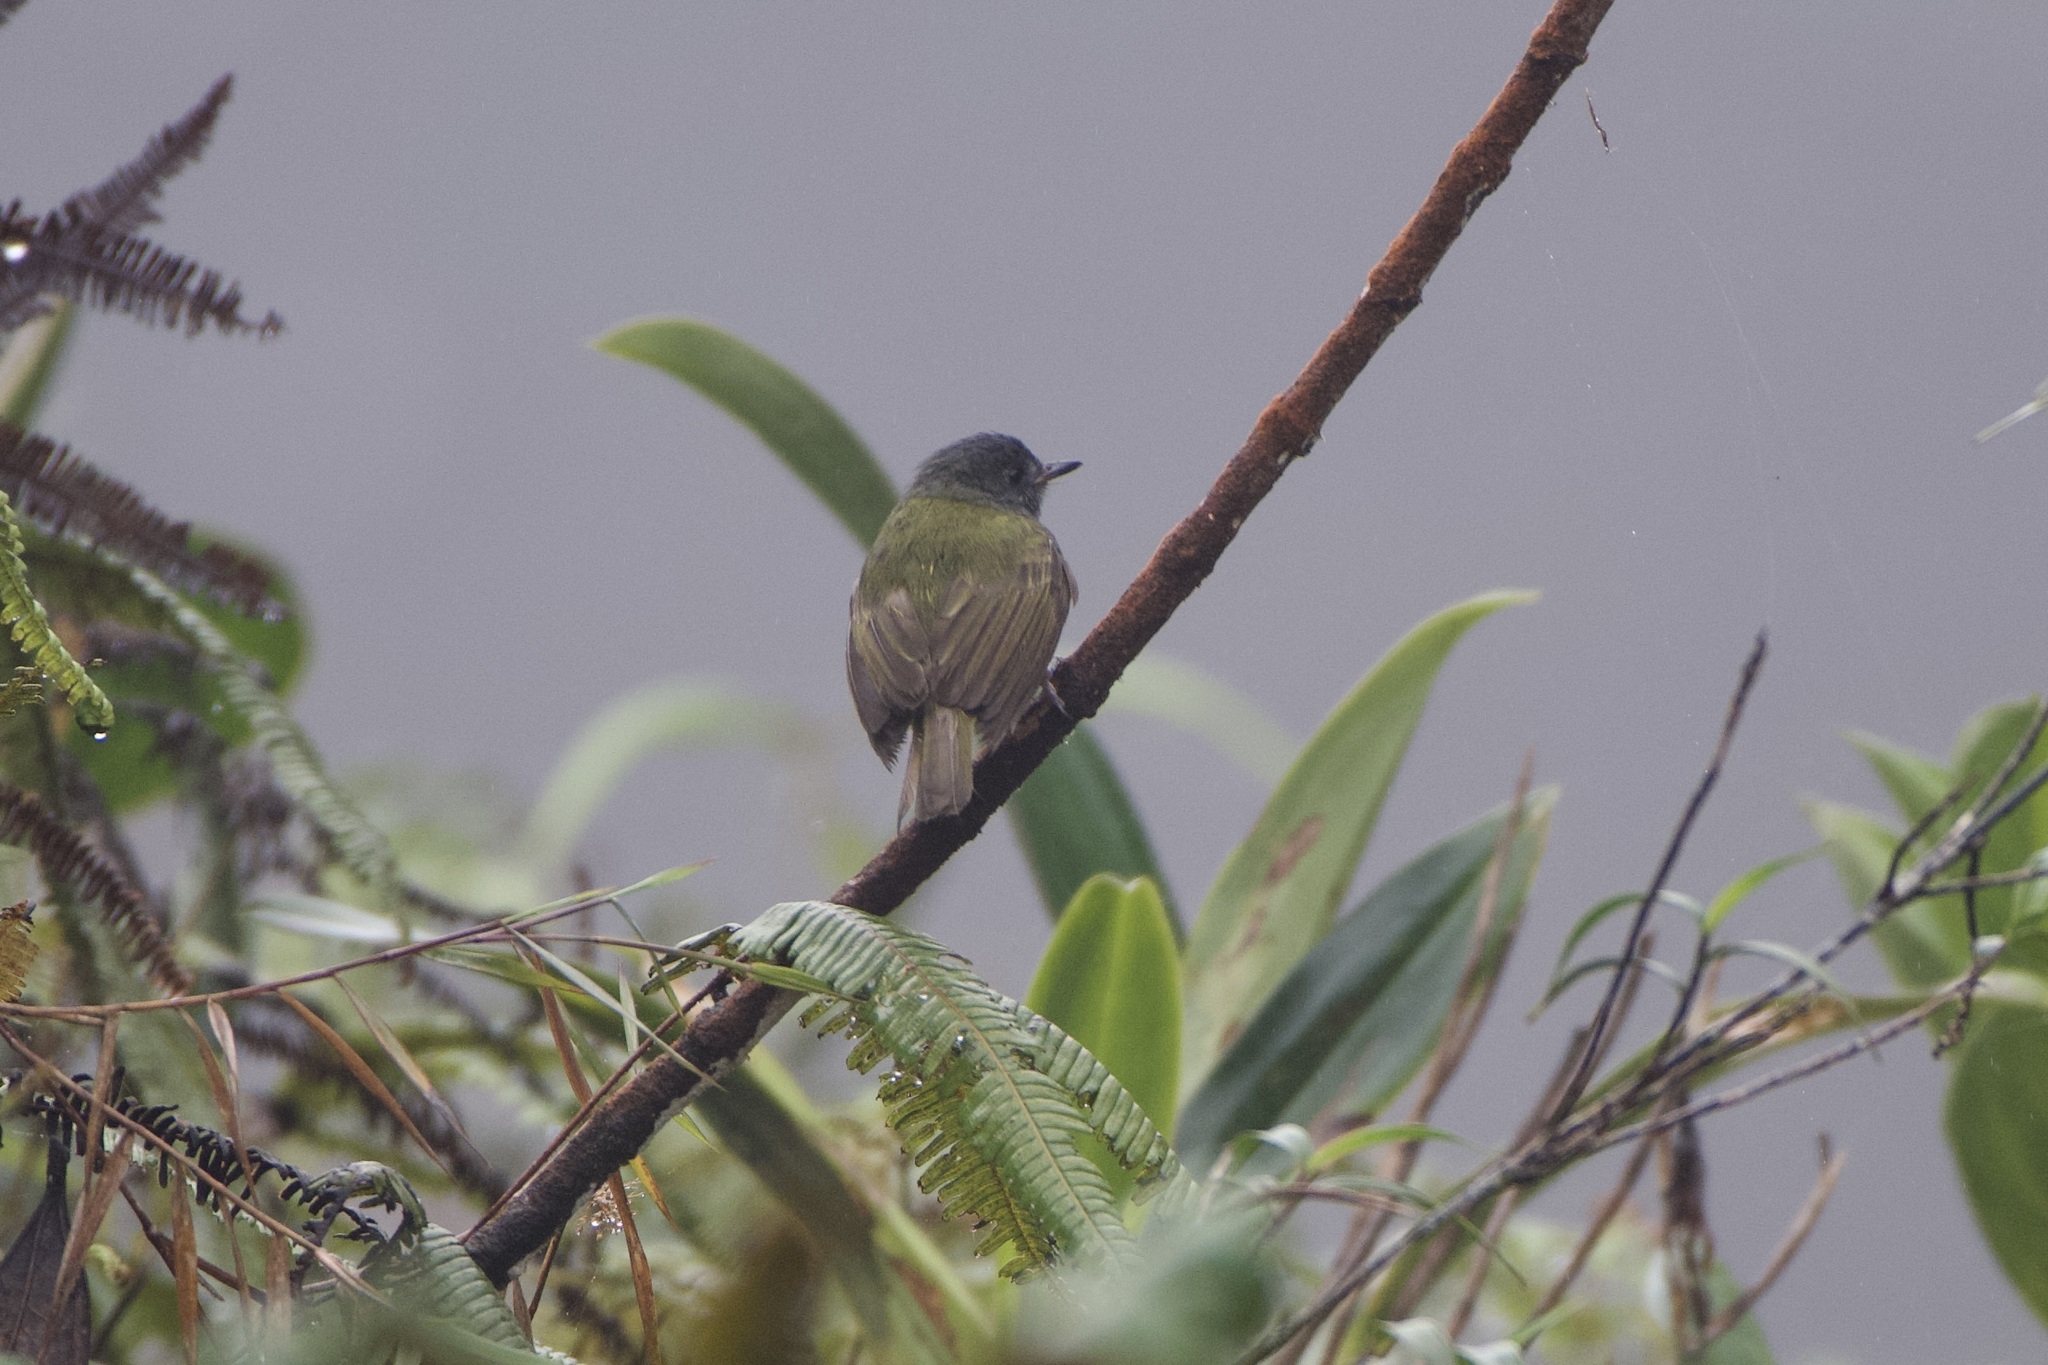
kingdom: Animalia
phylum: Chordata
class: Aves
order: Passeriformes
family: Tyrannidae
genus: Mionectes
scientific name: Mionectes striaticollis
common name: Streak-necked flycatcher
